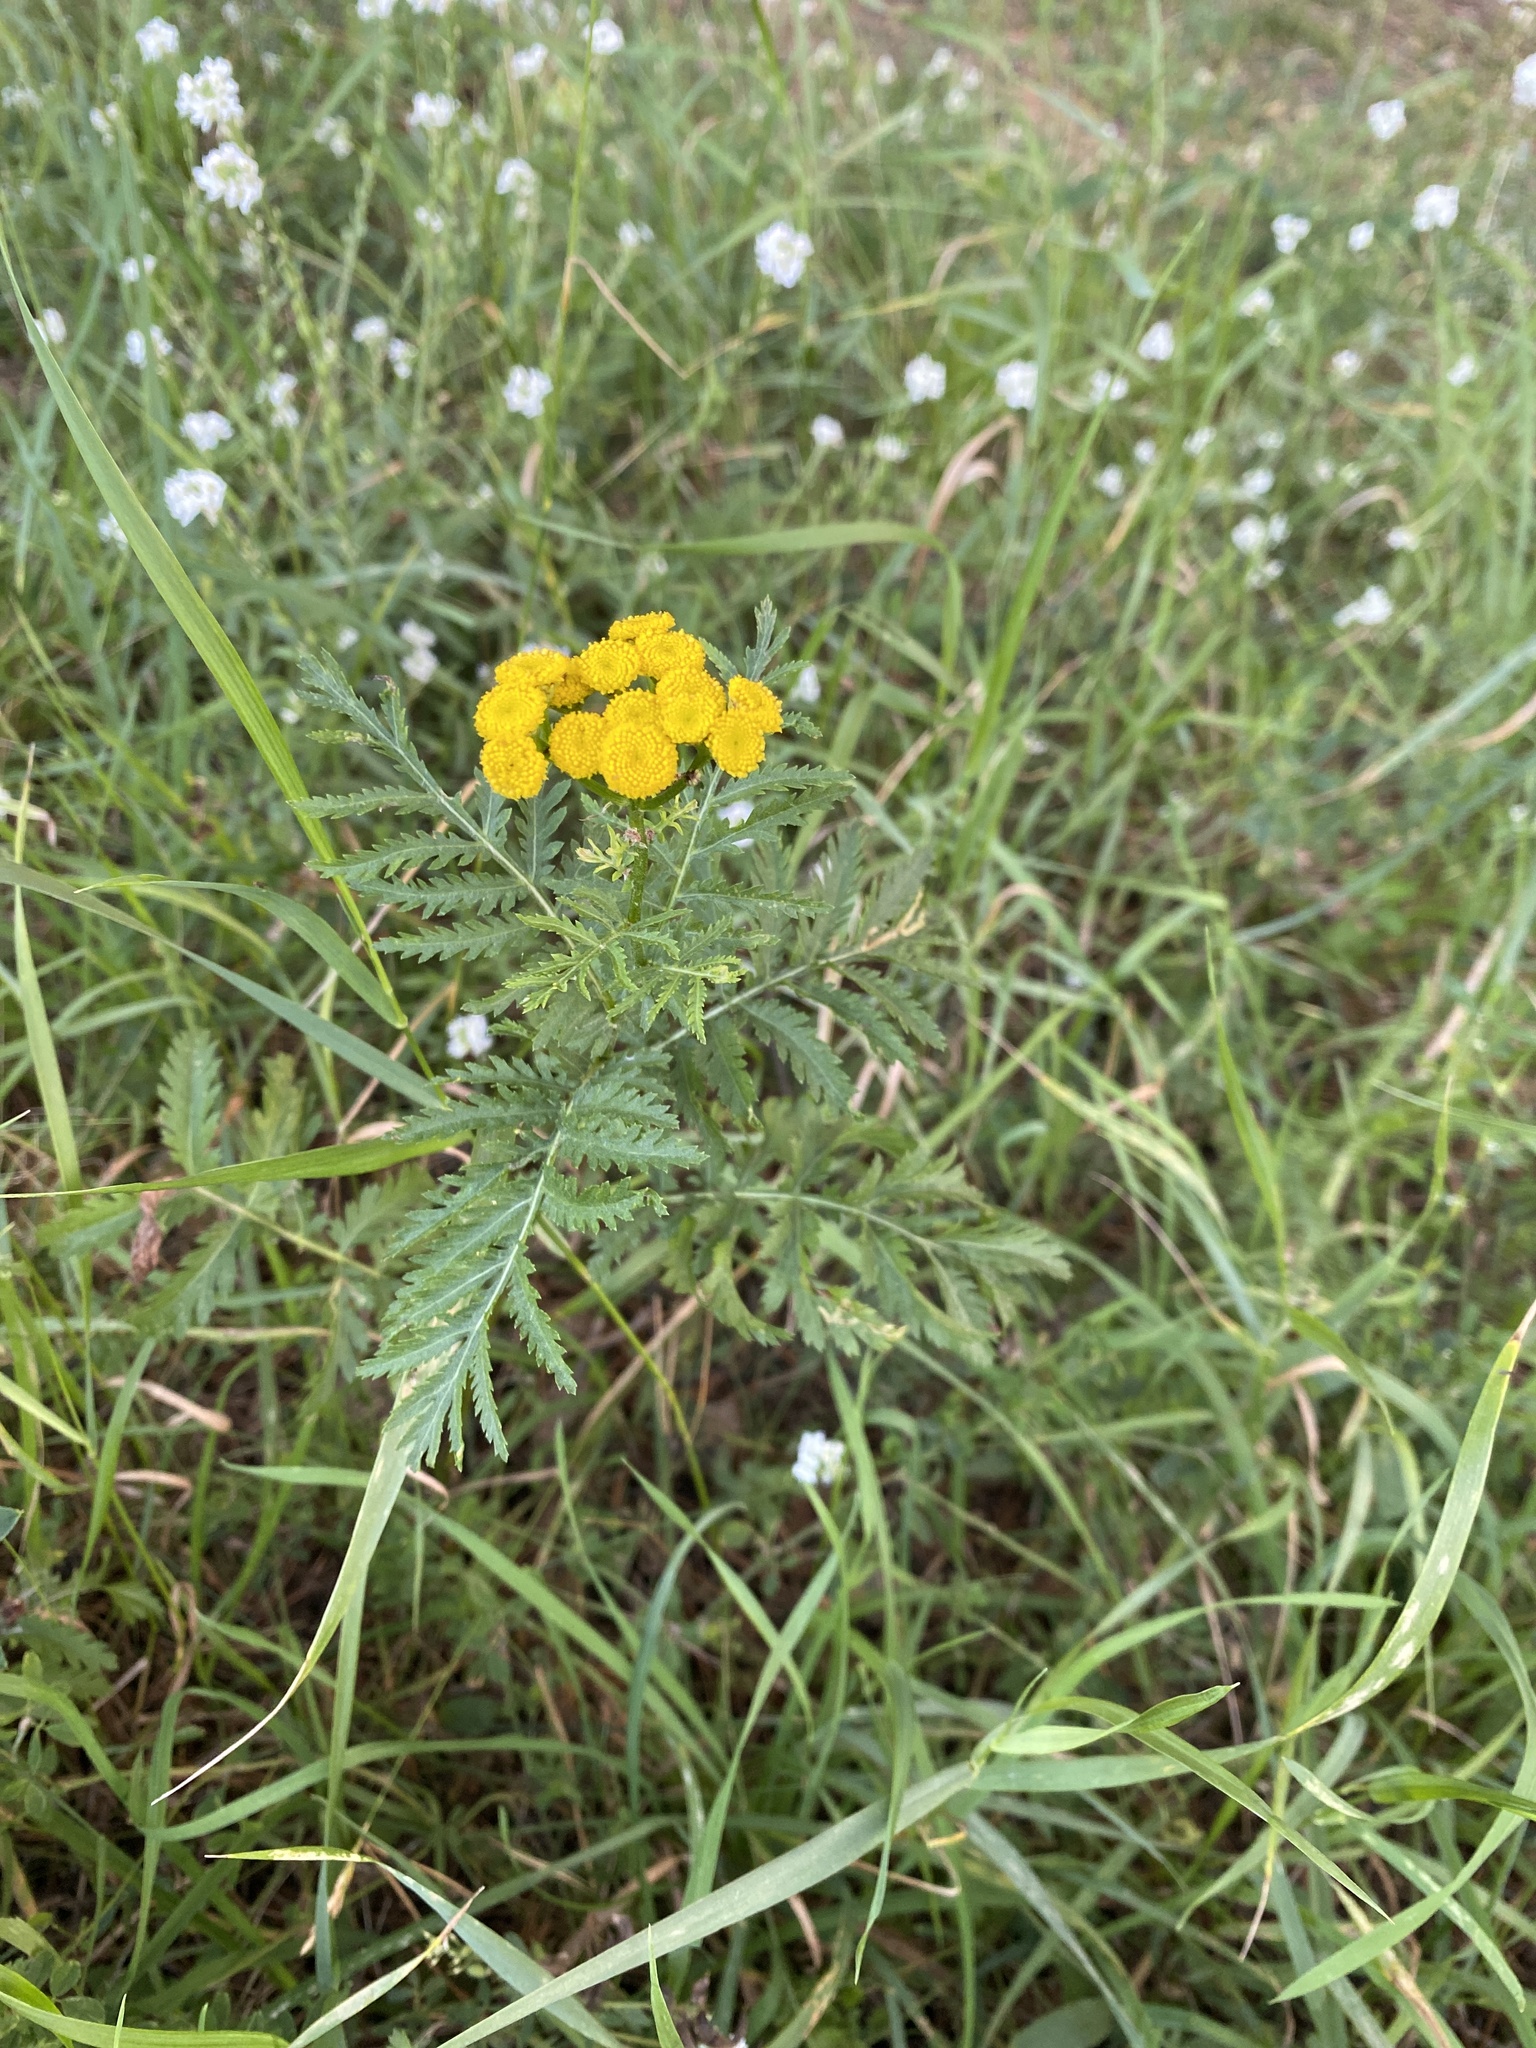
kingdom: Plantae
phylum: Tracheophyta
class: Magnoliopsida
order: Asterales
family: Asteraceae
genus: Tanacetum
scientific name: Tanacetum vulgare
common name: Common tansy
